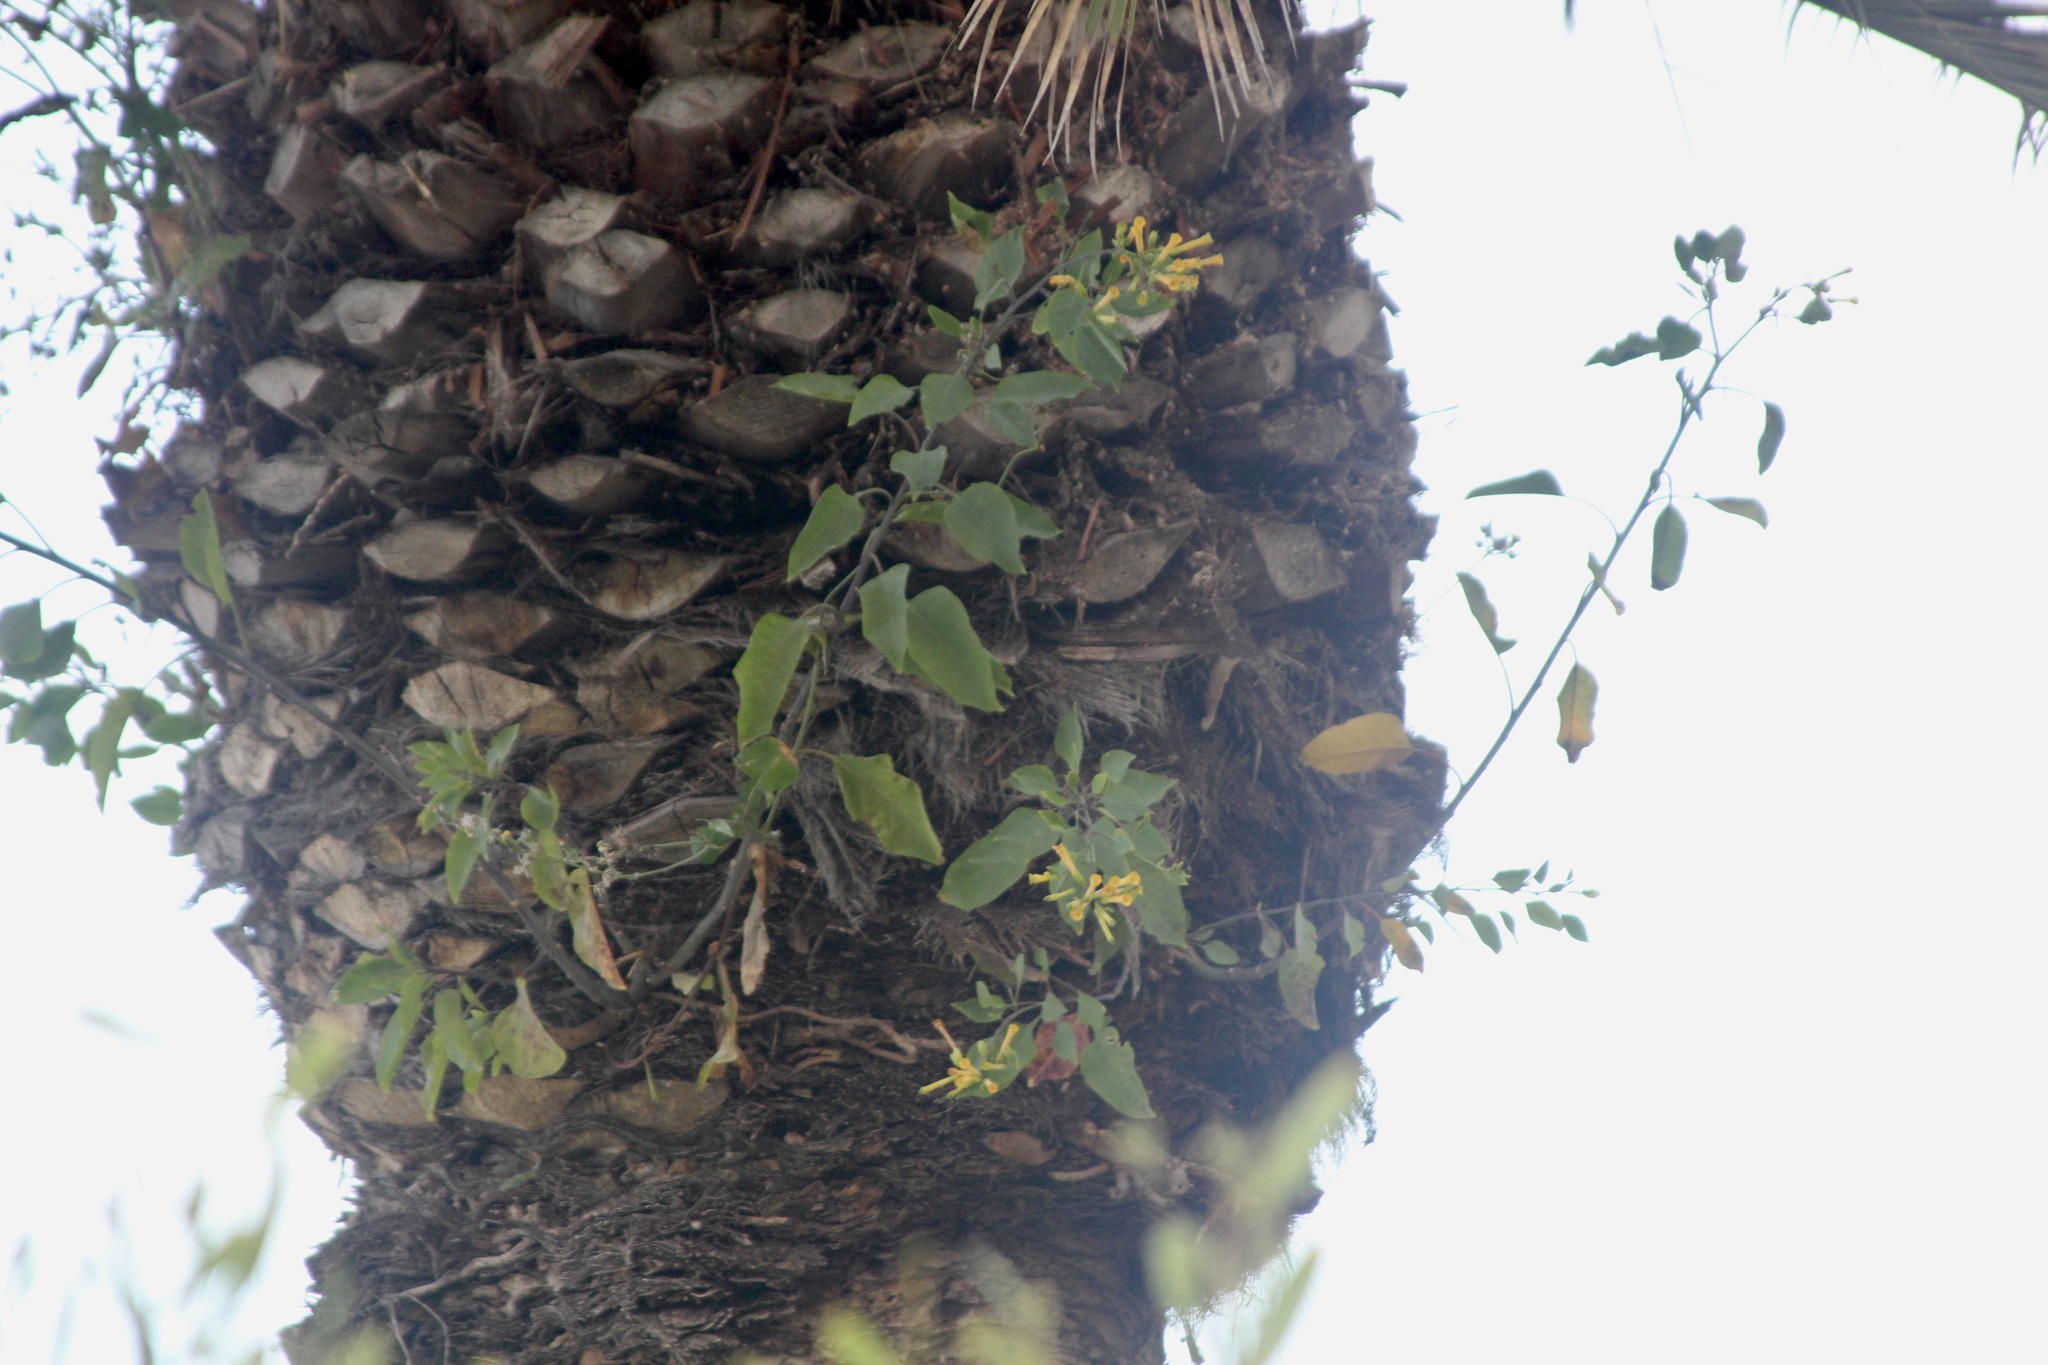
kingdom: Plantae
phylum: Tracheophyta
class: Magnoliopsida
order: Solanales
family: Solanaceae
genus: Nicotiana
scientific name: Nicotiana glauca
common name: Tree tobacco
